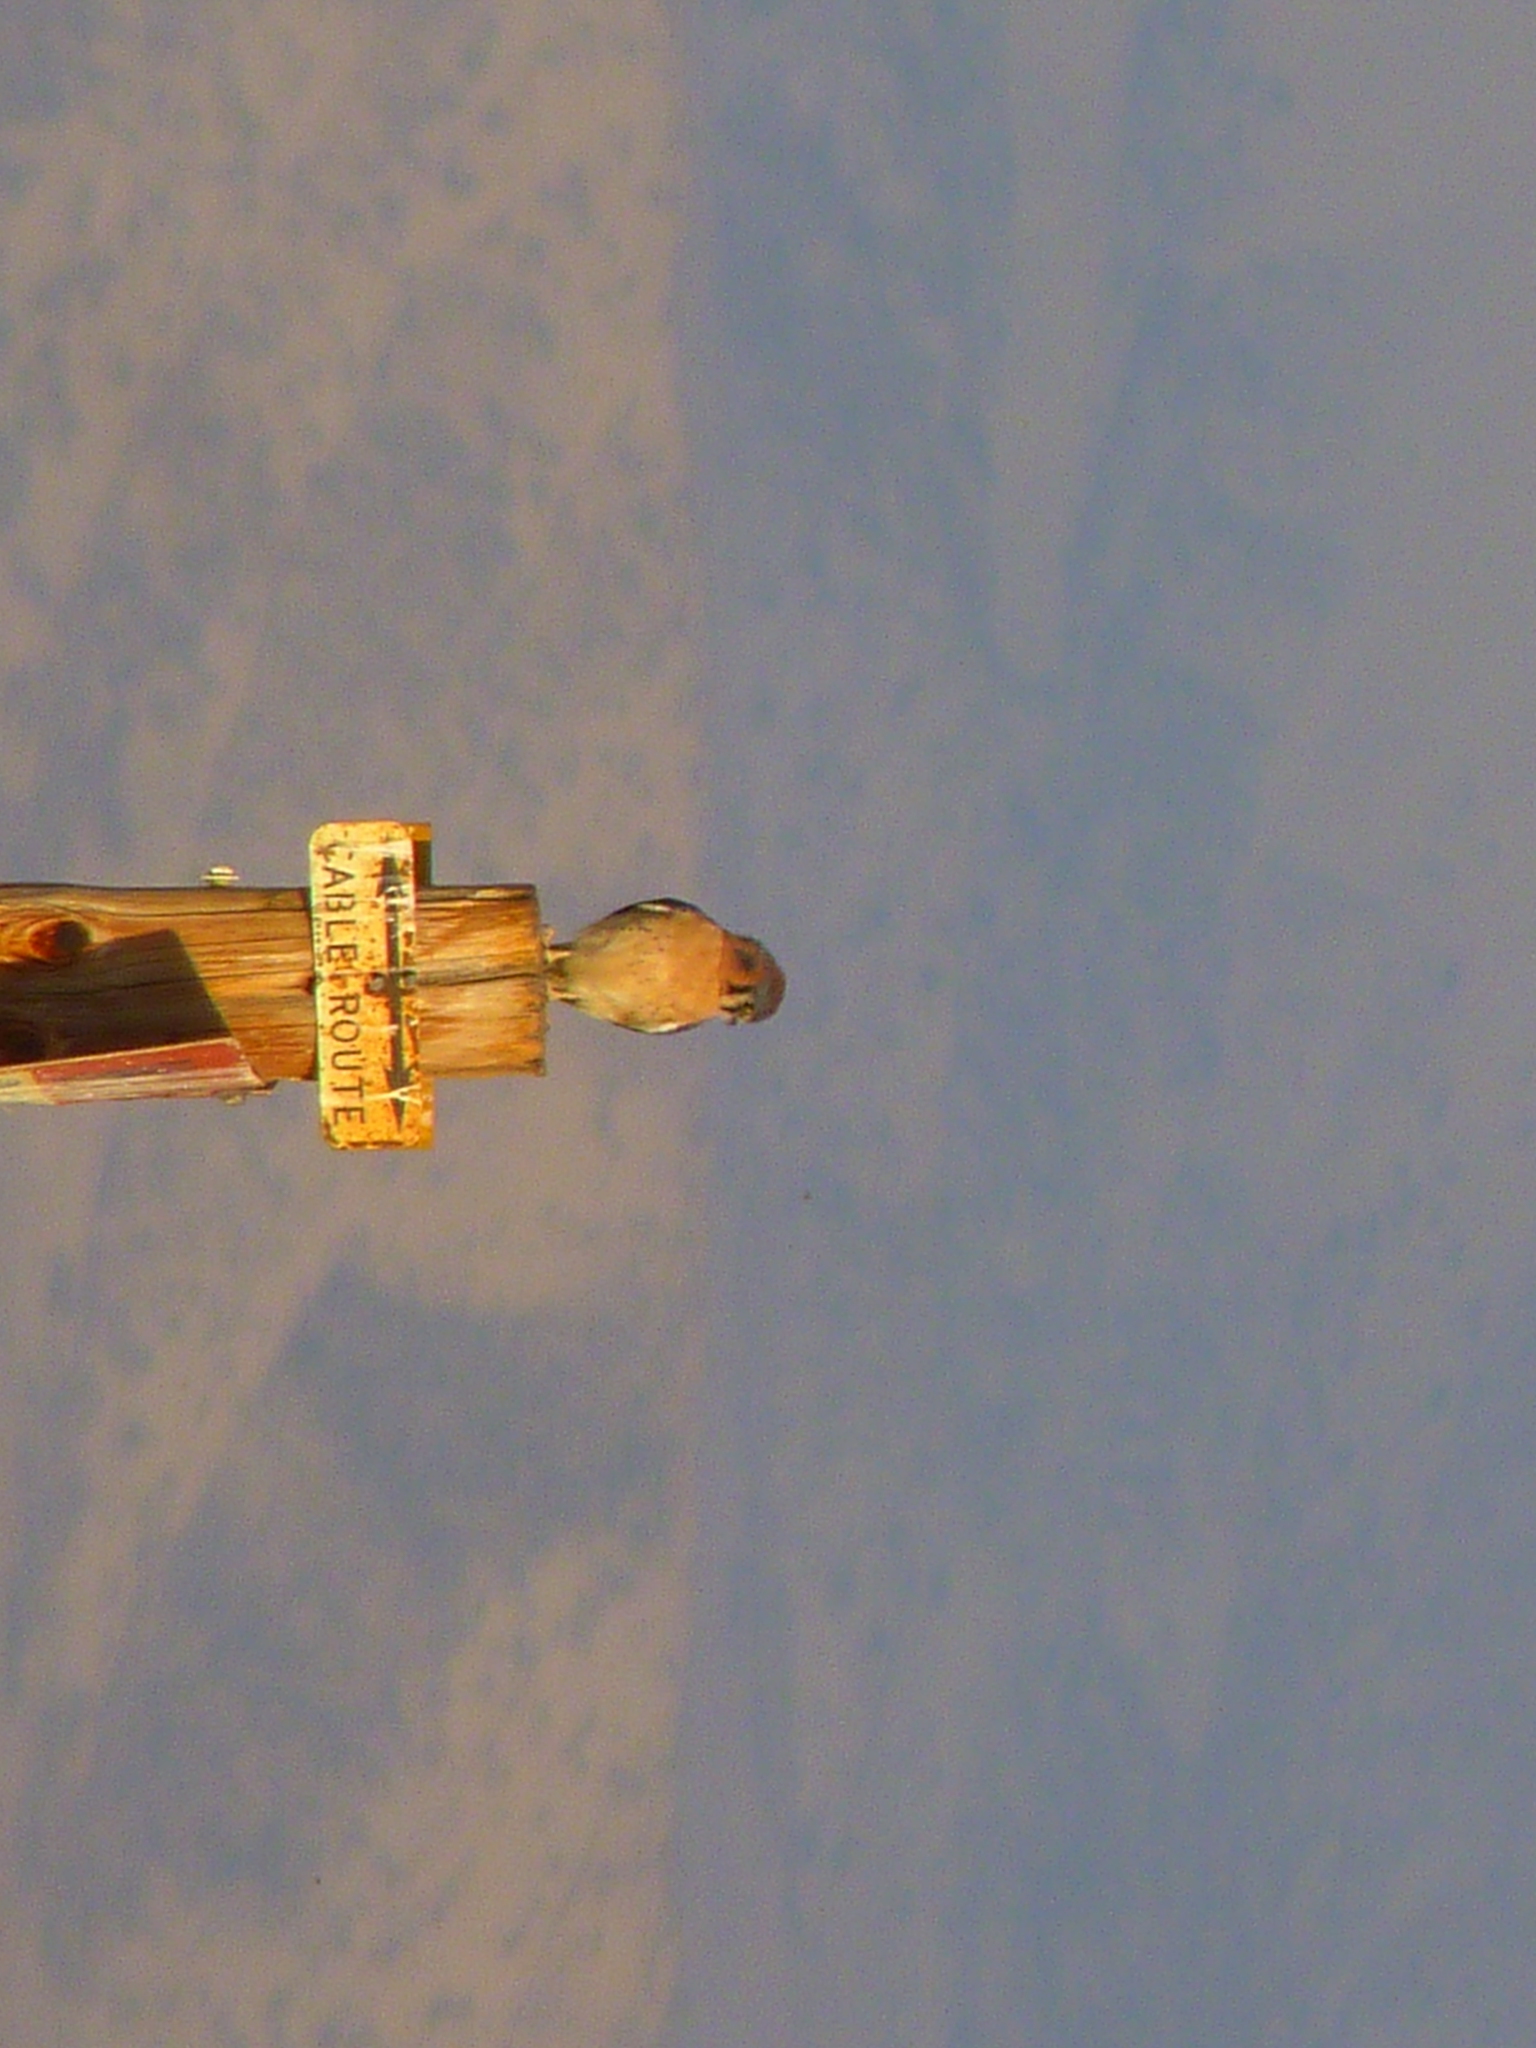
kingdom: Animalia
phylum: Chordata
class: Aves
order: Falconiformes
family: Falconidae
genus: Falco
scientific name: Falco sparverius
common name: American kestrel
